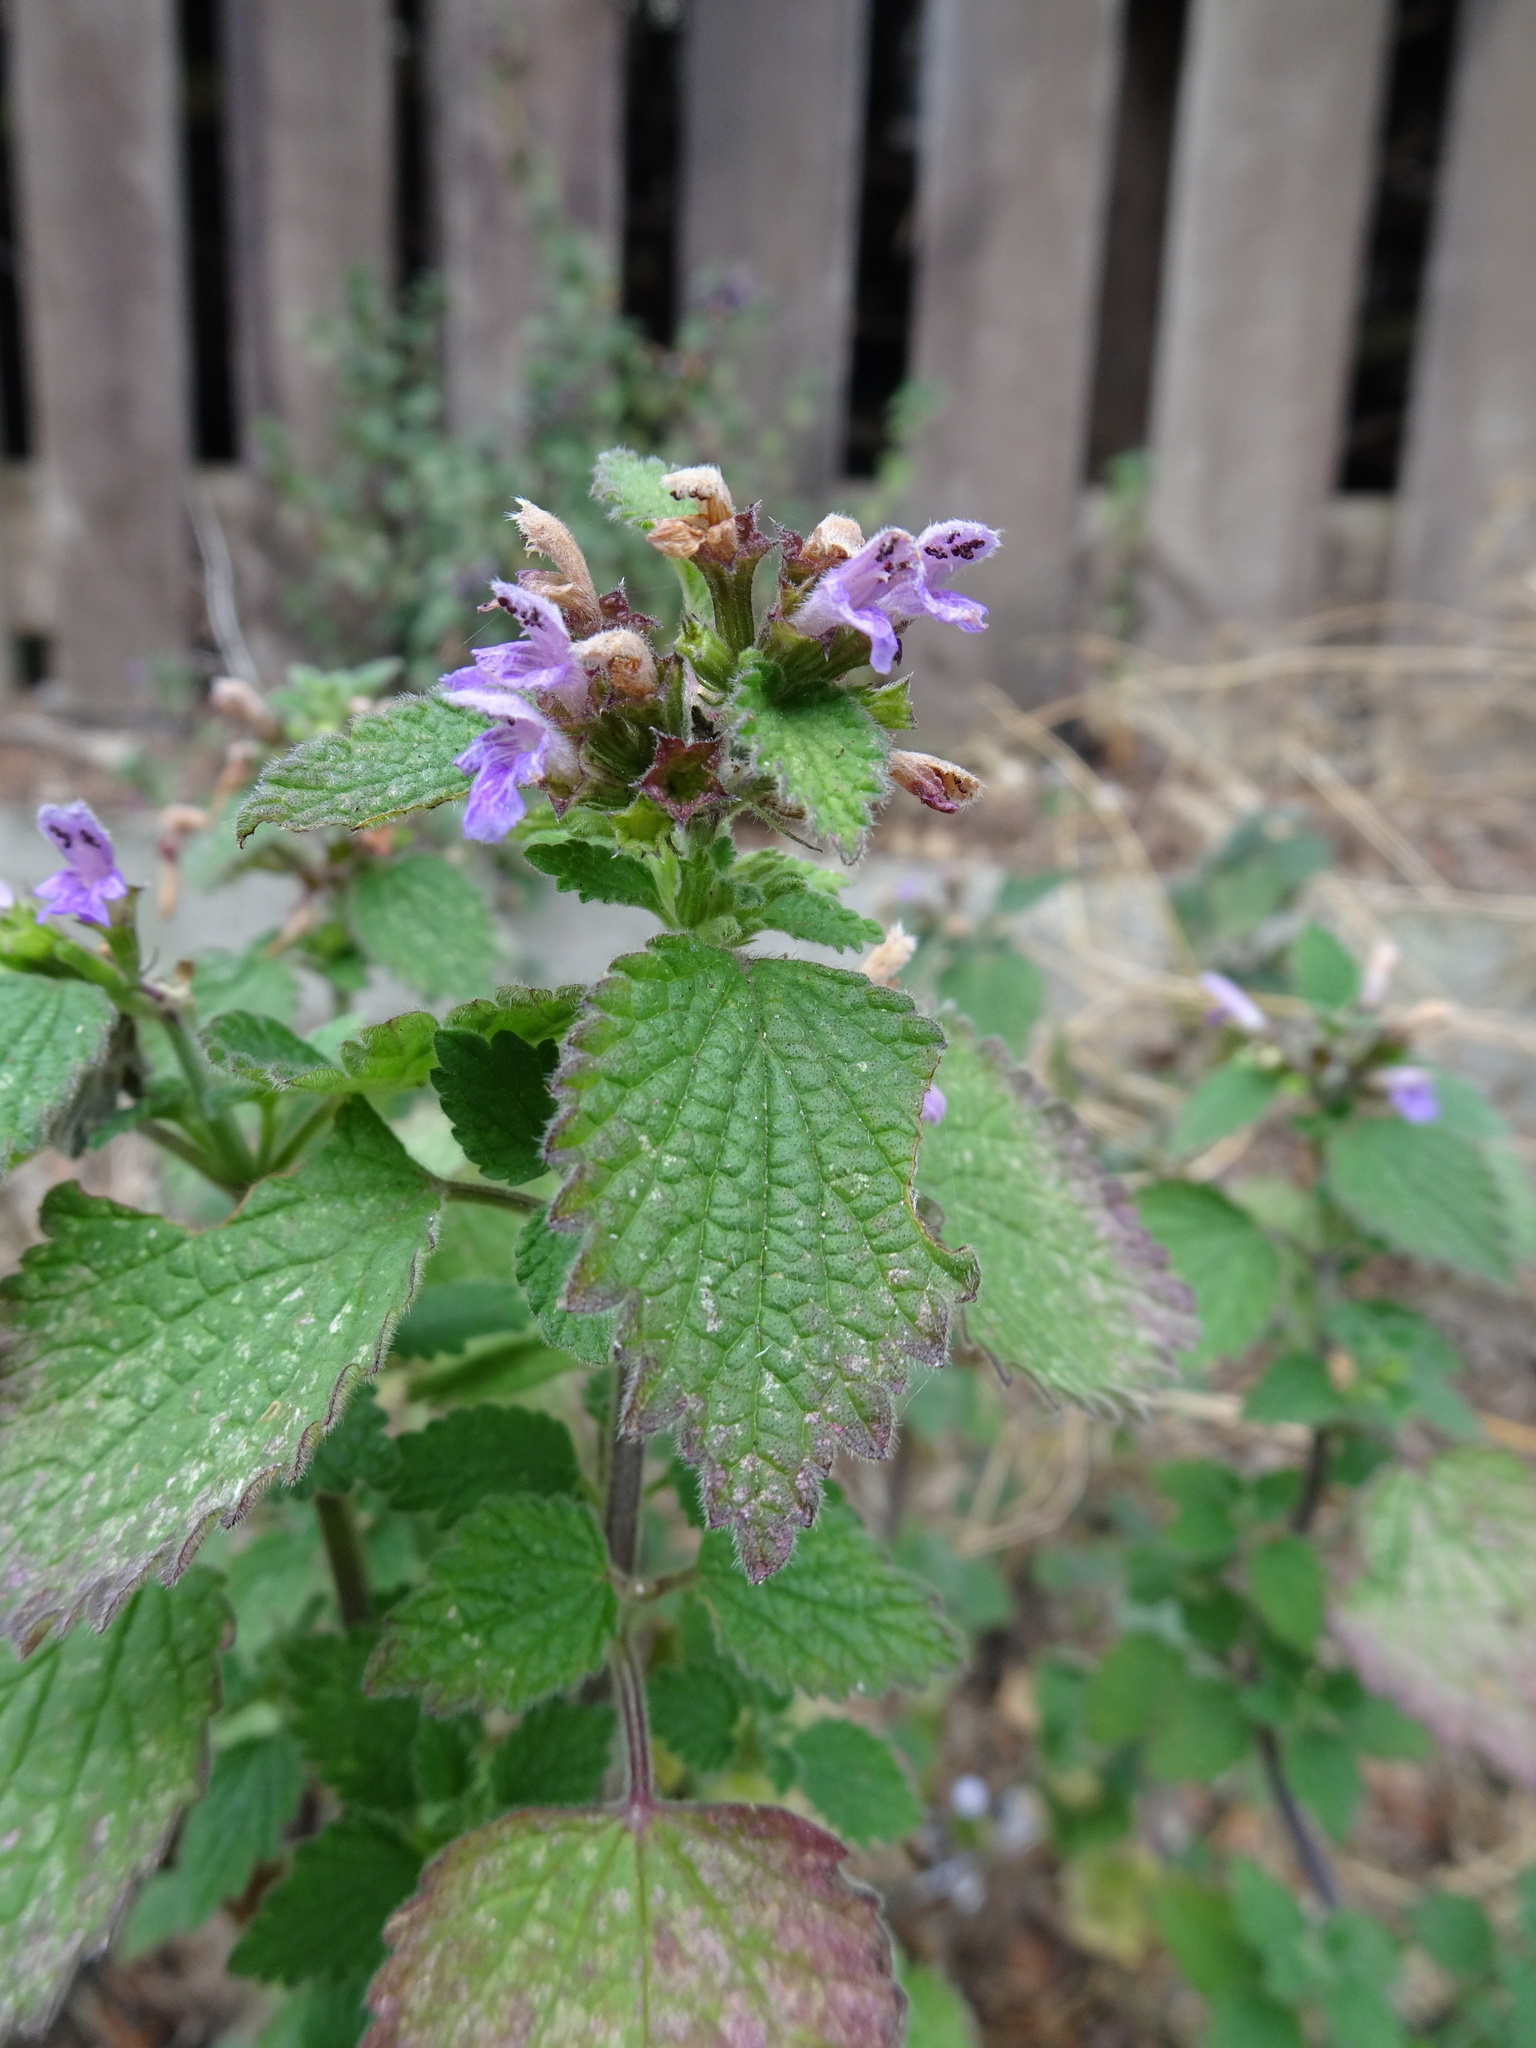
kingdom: Plantae
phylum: Tracheophyta
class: Magnoliopsida
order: Lamiales
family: Lamiaceae
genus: Ballota
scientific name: Ballota nigra
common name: Black horehound
